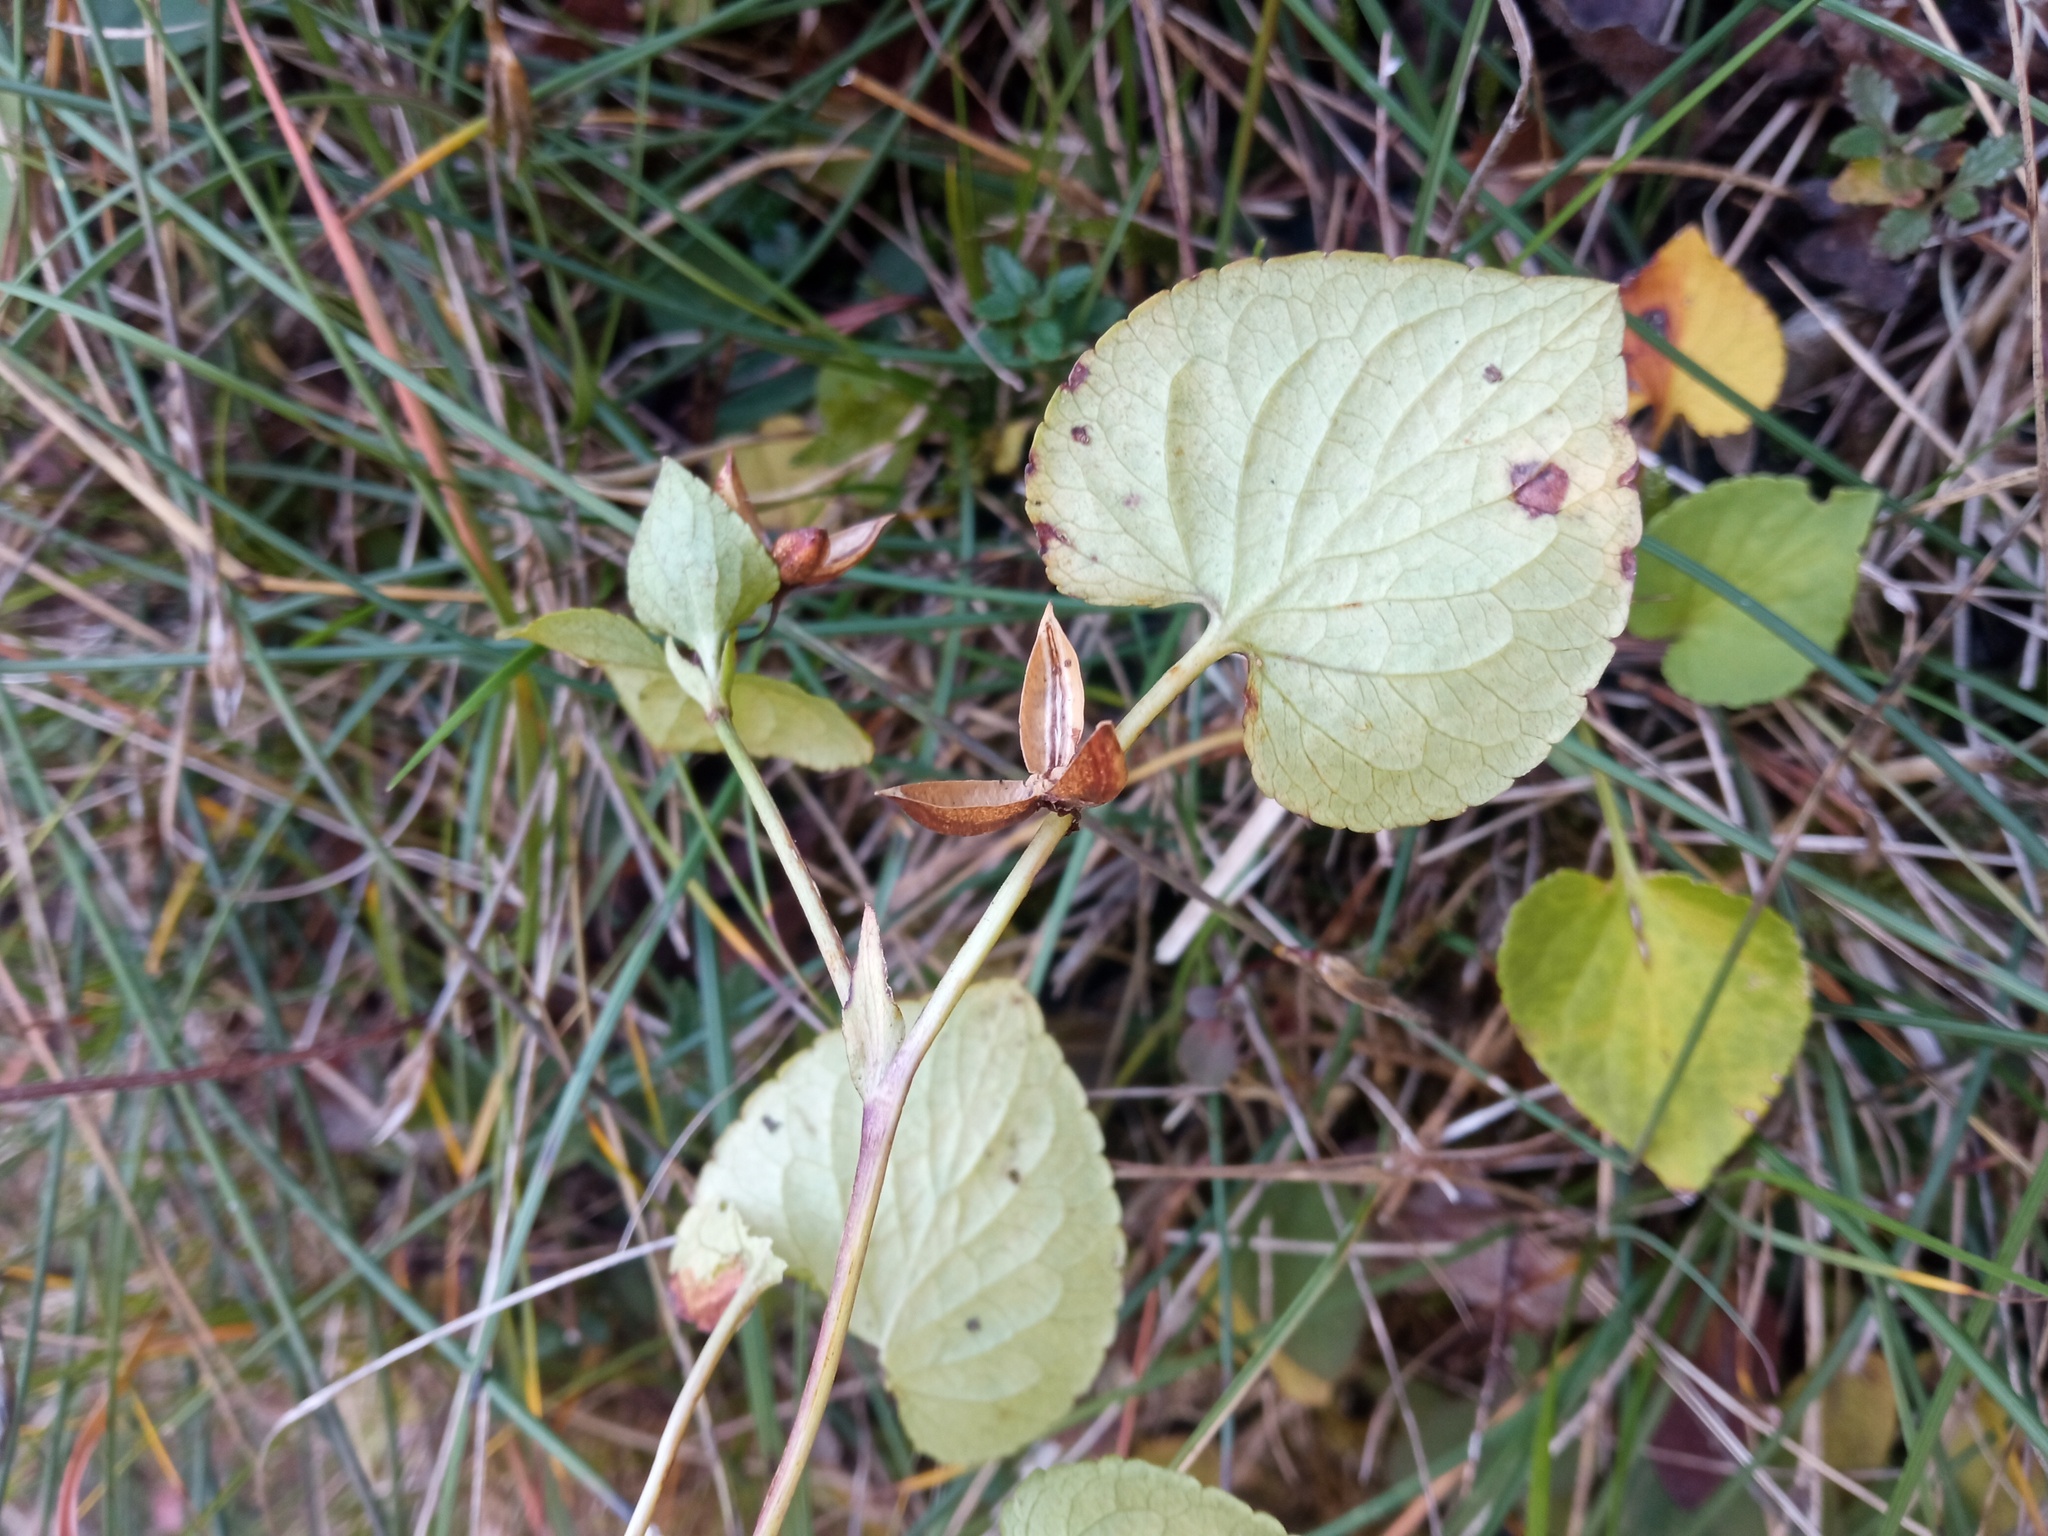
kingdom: Plantae
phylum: Tracheophyta
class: Magnoliopsida
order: Malpighiales
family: Violaceae
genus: Viola
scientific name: Viola willkommii
